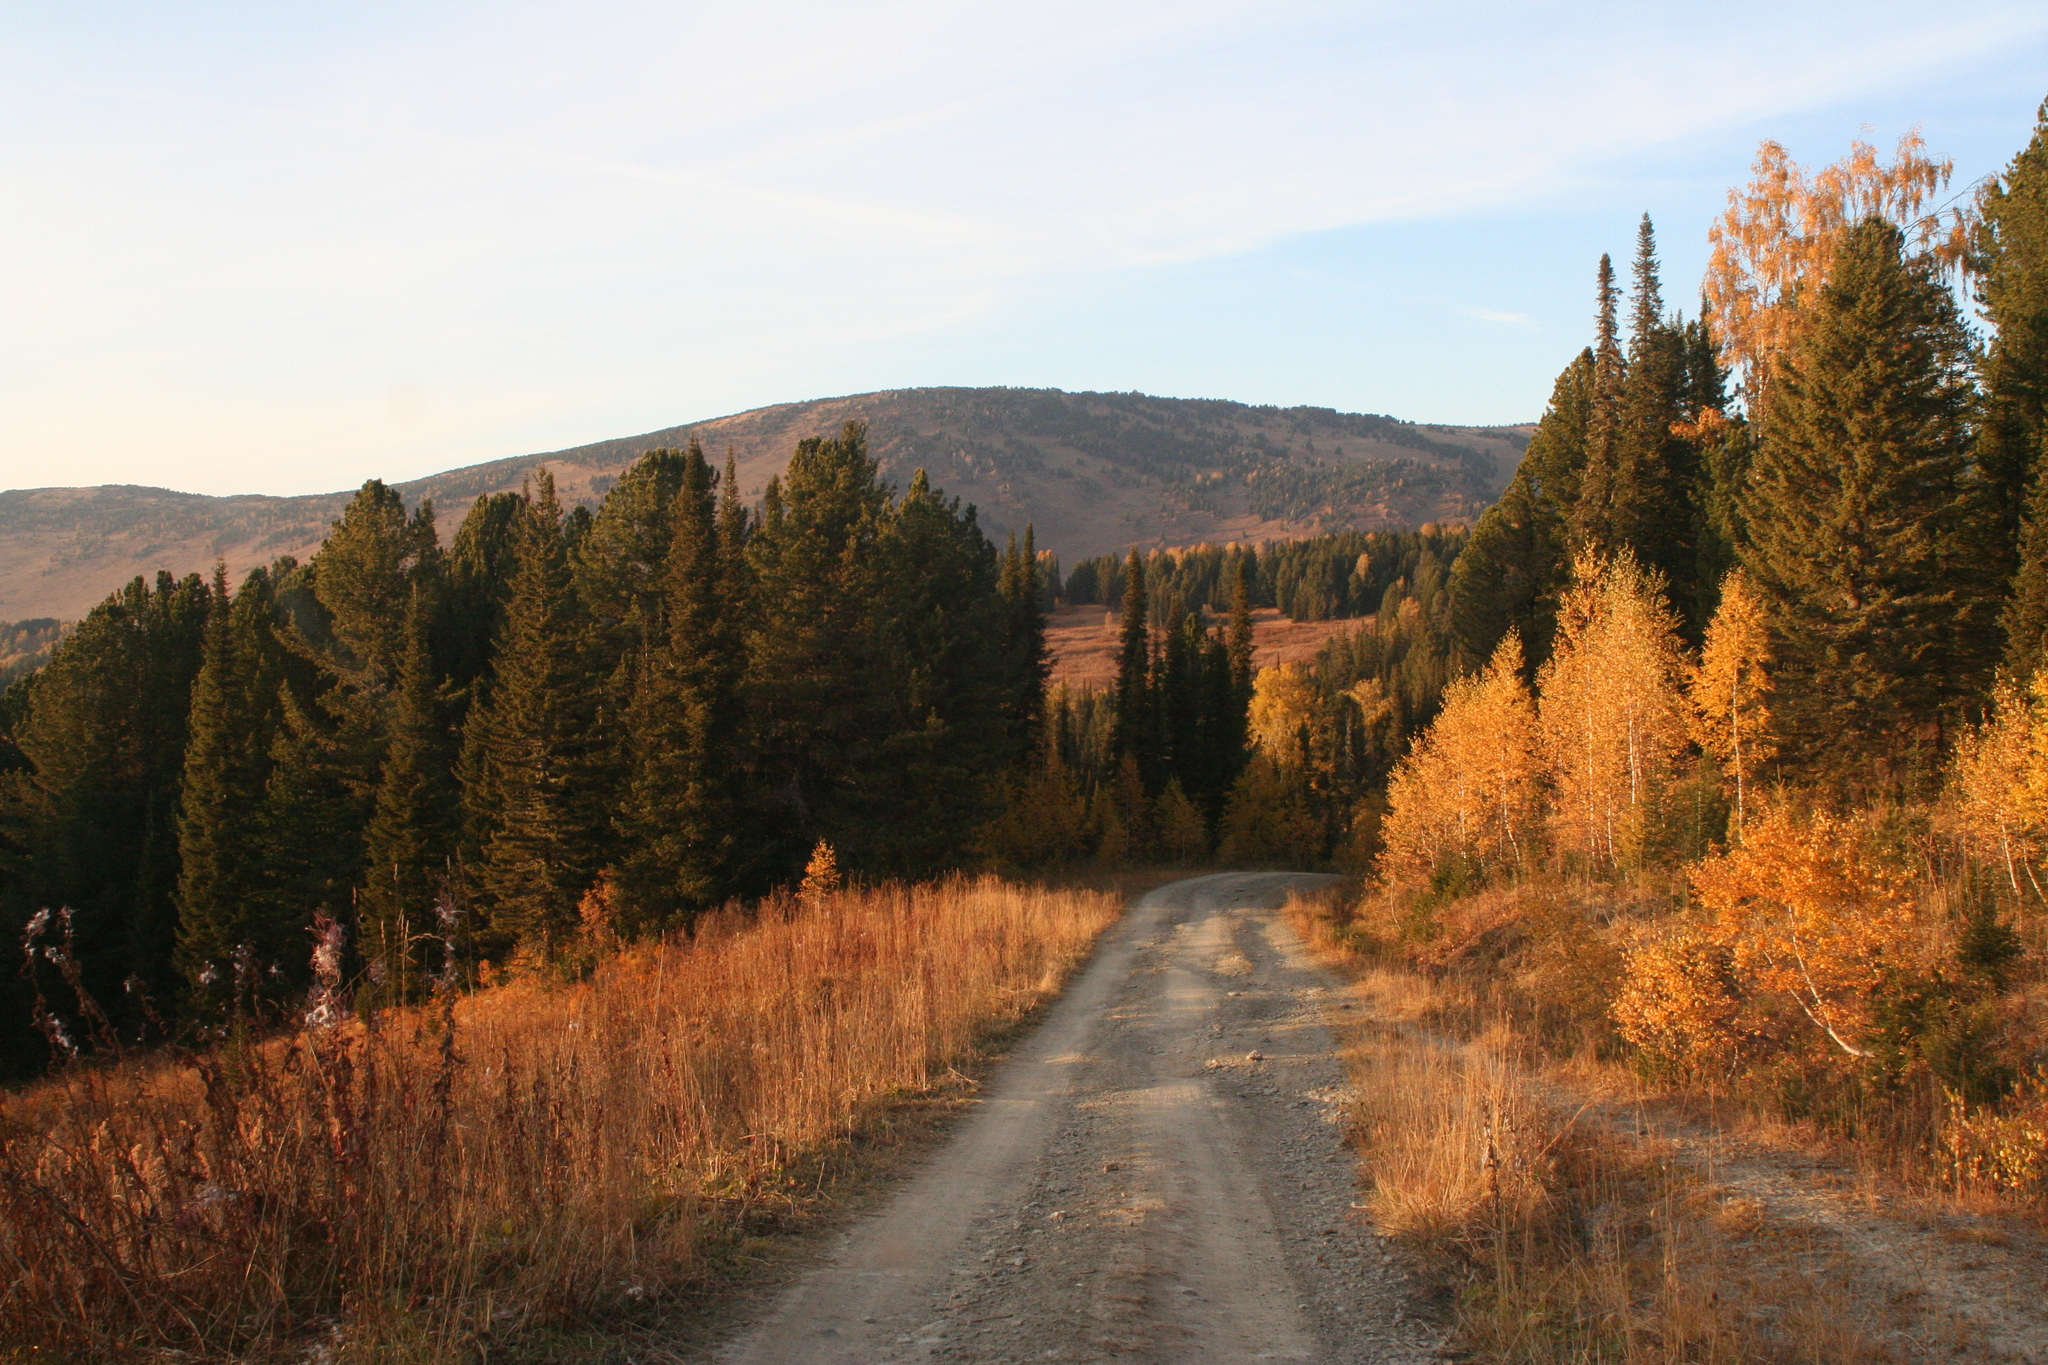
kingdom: Plantae
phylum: Tracheophyta
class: Pinopsida
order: Pinales
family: Pinaceae
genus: Abies
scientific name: Abies sibirica
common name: Siberian fir
